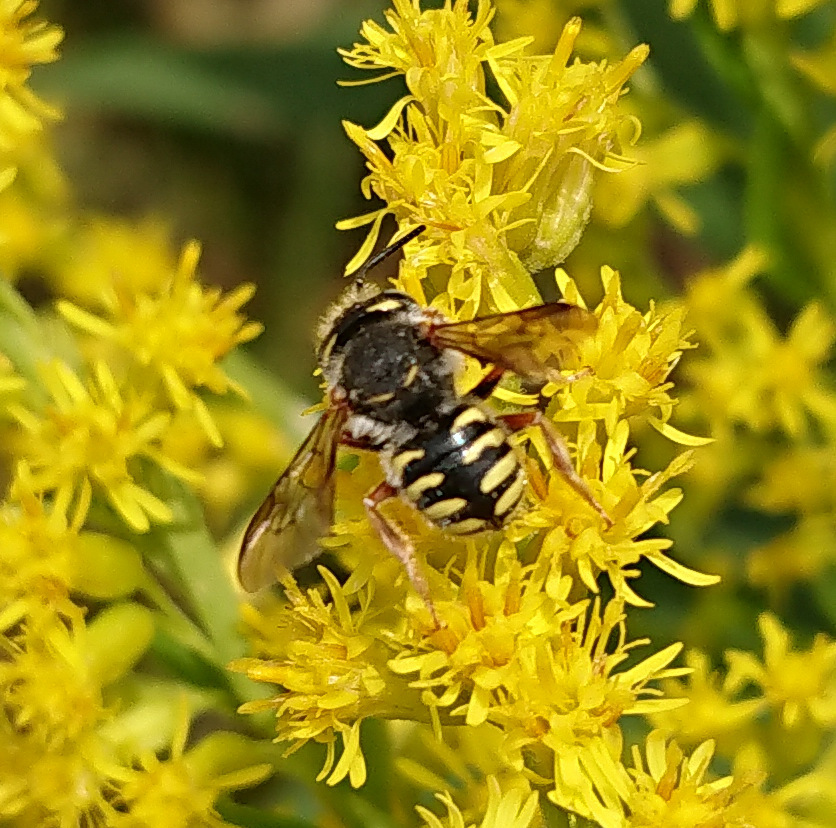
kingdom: Animalia
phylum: Arthropoda
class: Insecta
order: Hymenoptera
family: Megachilidae
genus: Anthidium
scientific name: Anthidium oblongatum
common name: Oblong wool carder bee
